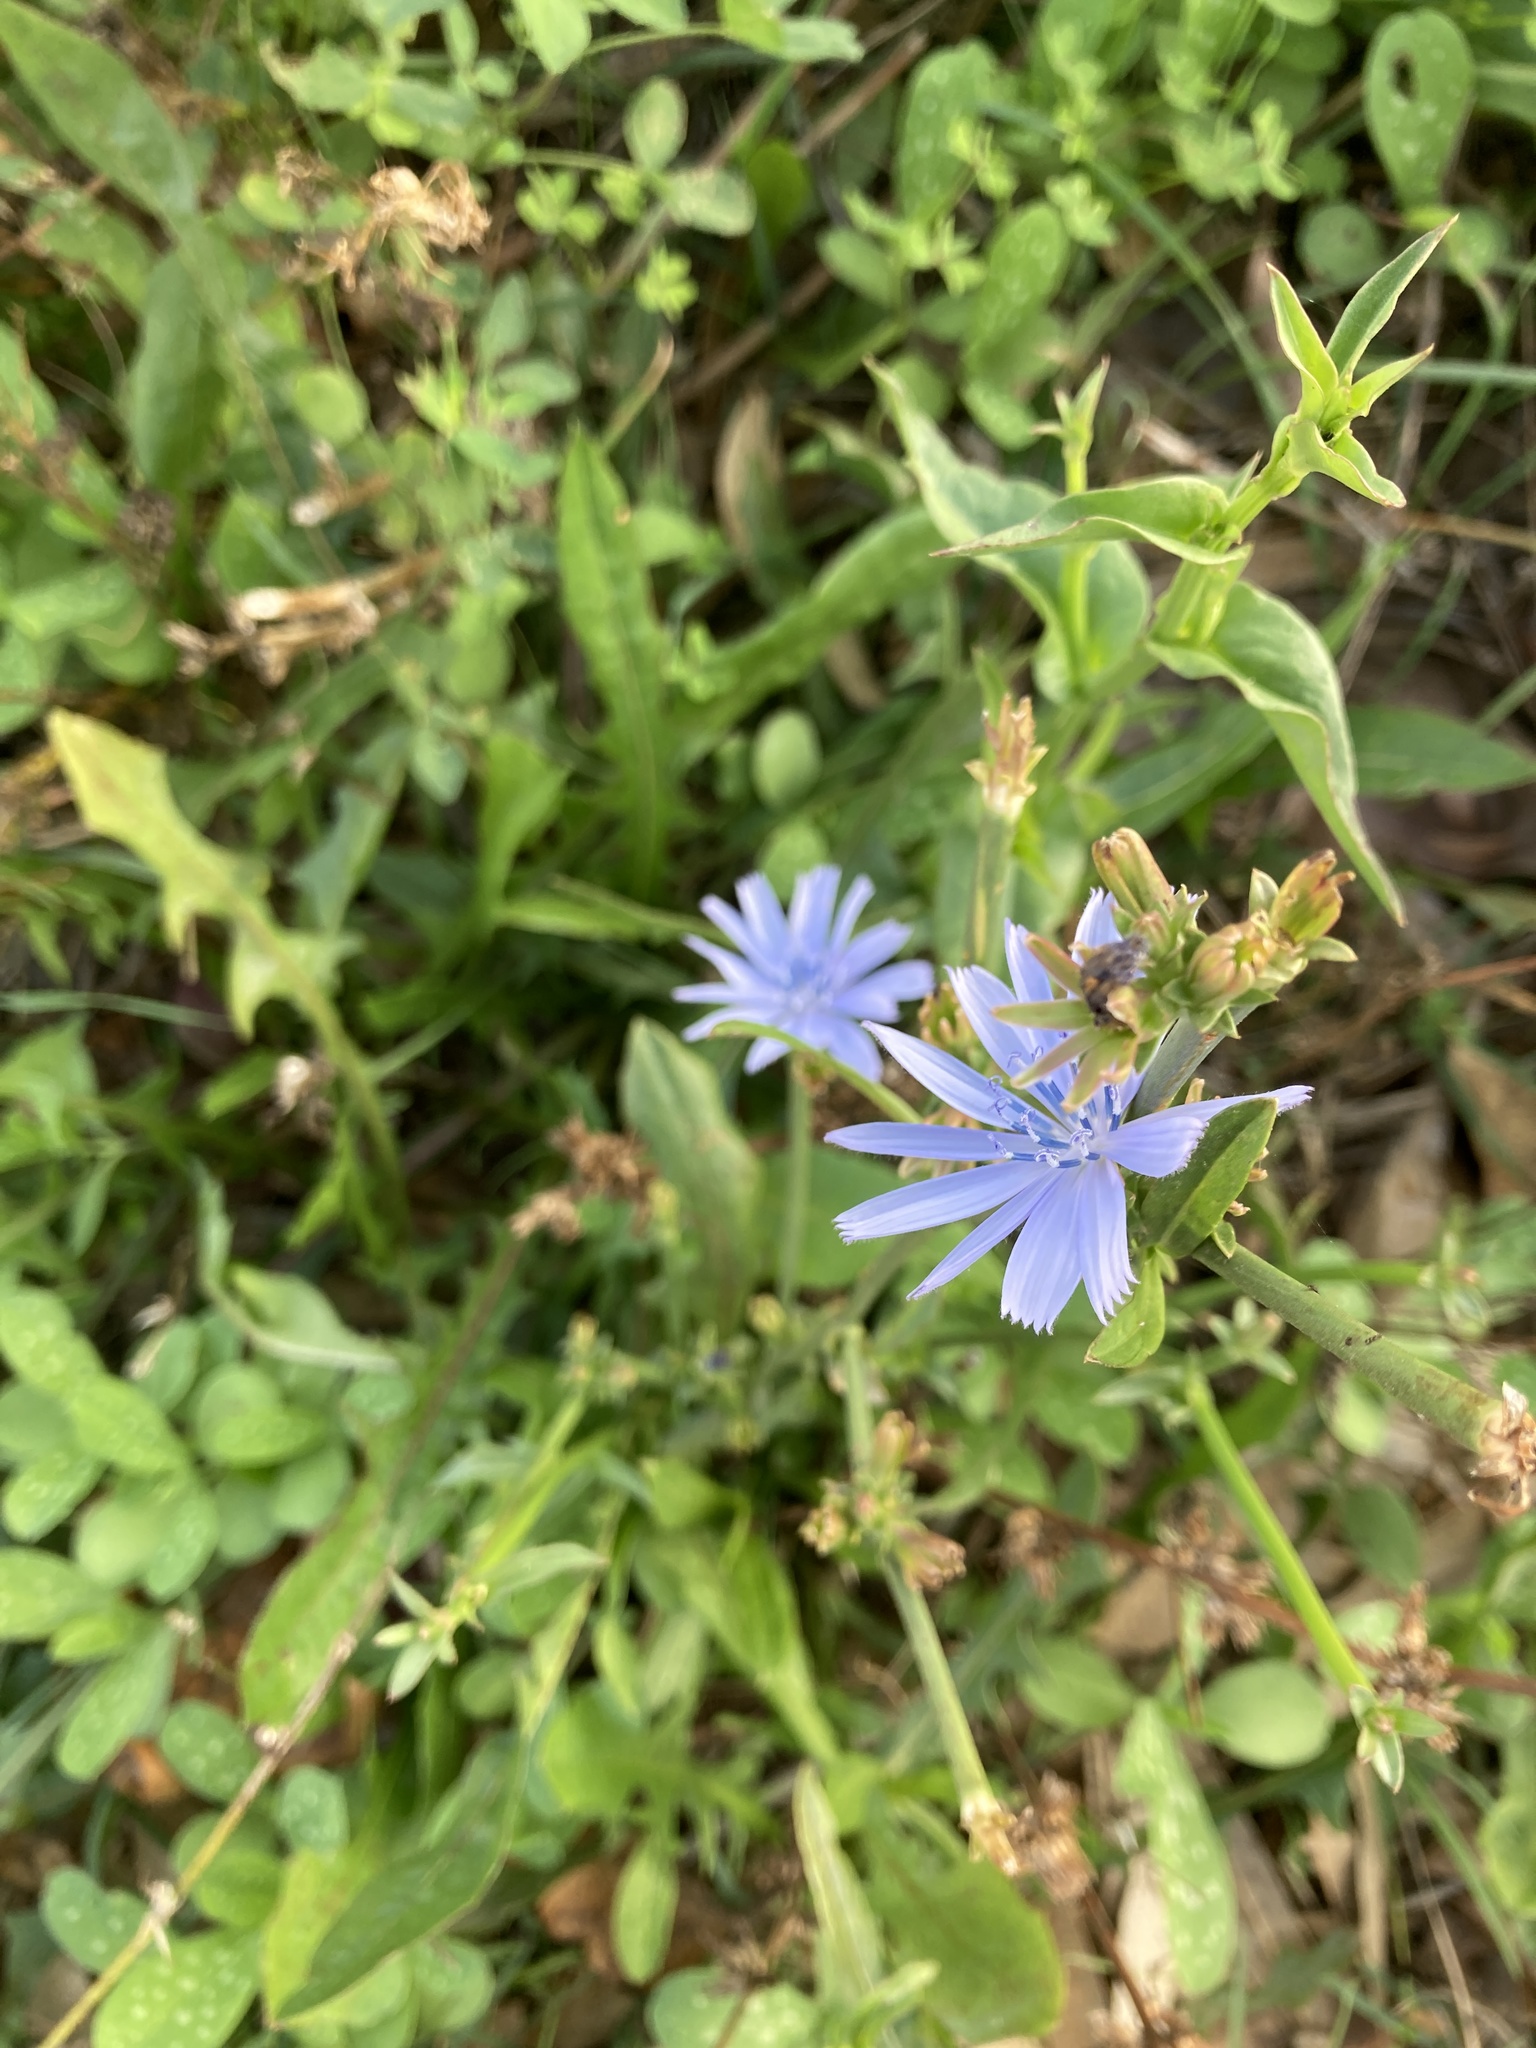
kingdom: Plantae
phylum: Tracheophyta
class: Magnoliopsida
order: Asterales
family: Asteraceae
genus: Cichorium
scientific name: Cichorium intybus
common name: Chicory
